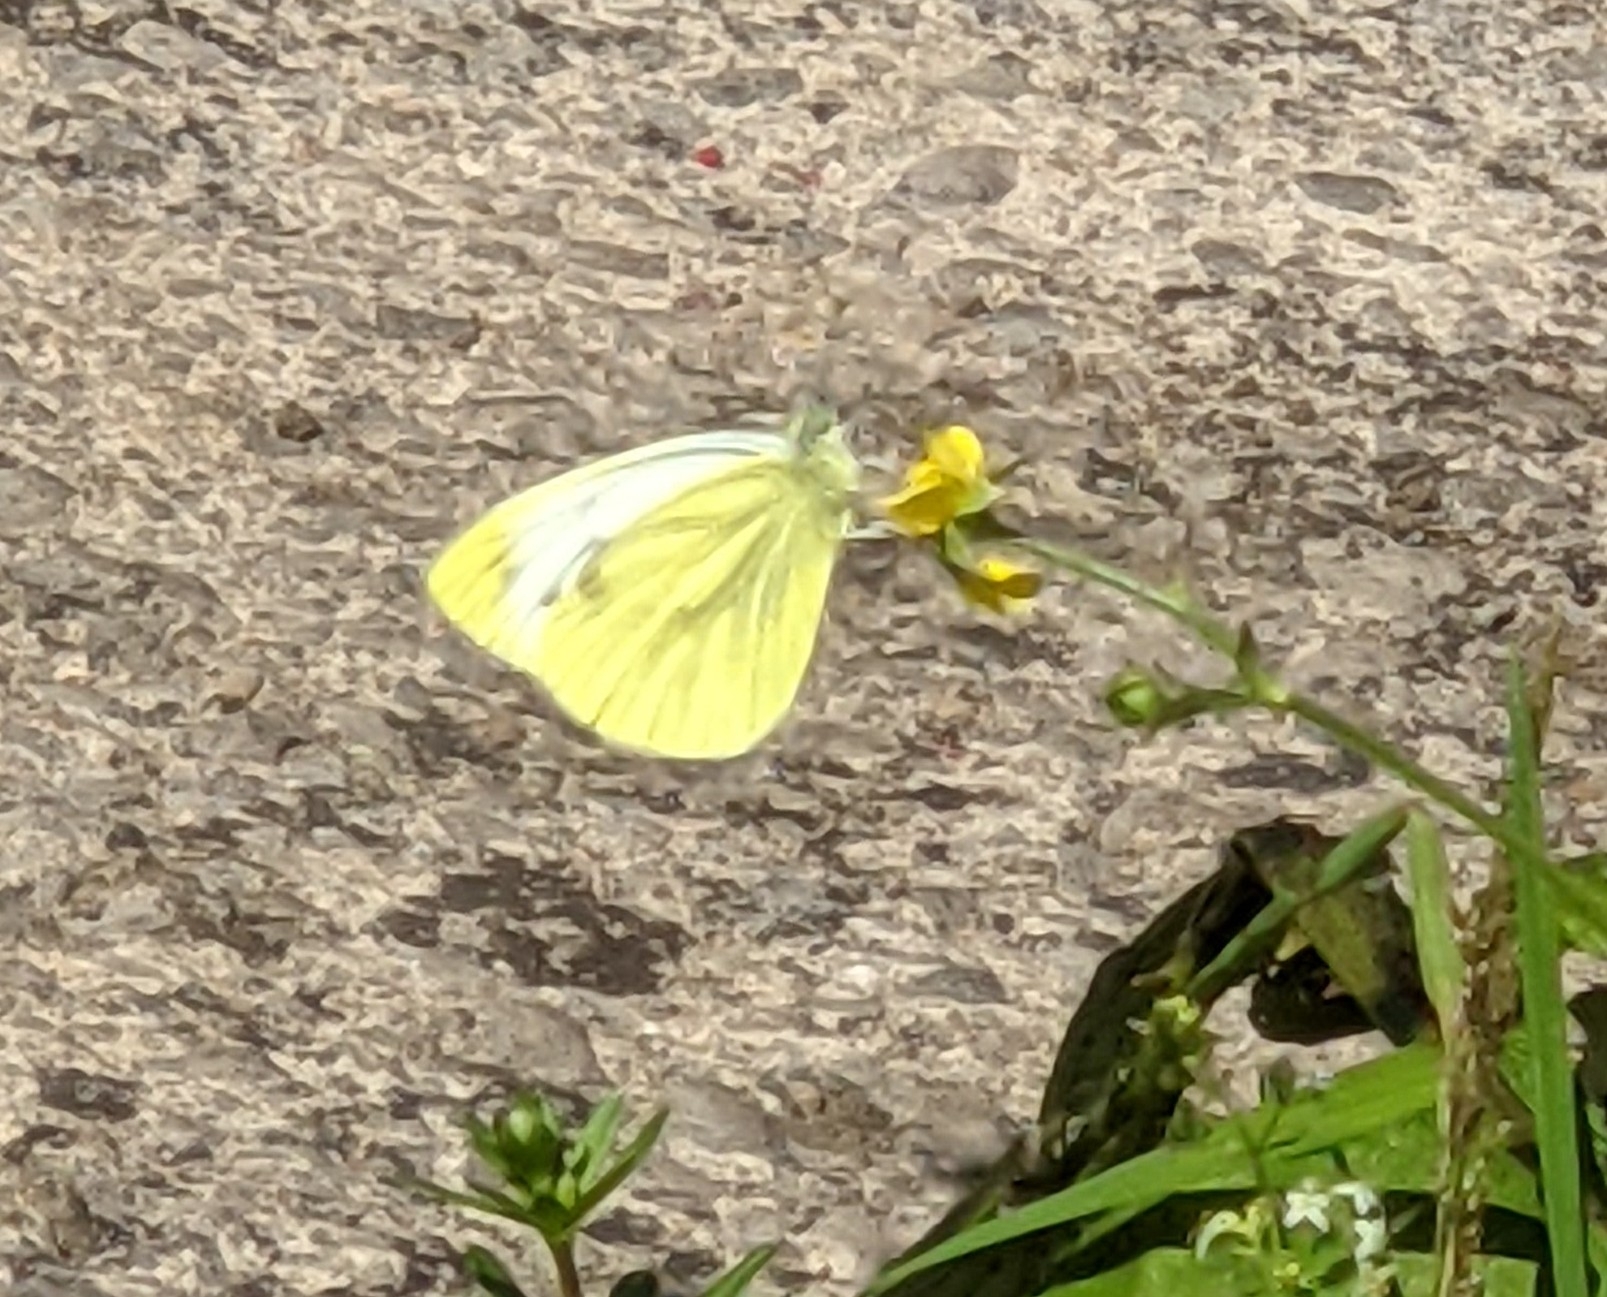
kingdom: Animalia
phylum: Arthropoda
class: Insecta
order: Lepidoptera
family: Pieridae
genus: Pieris
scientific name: Pieris napi
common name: Green-veined white
